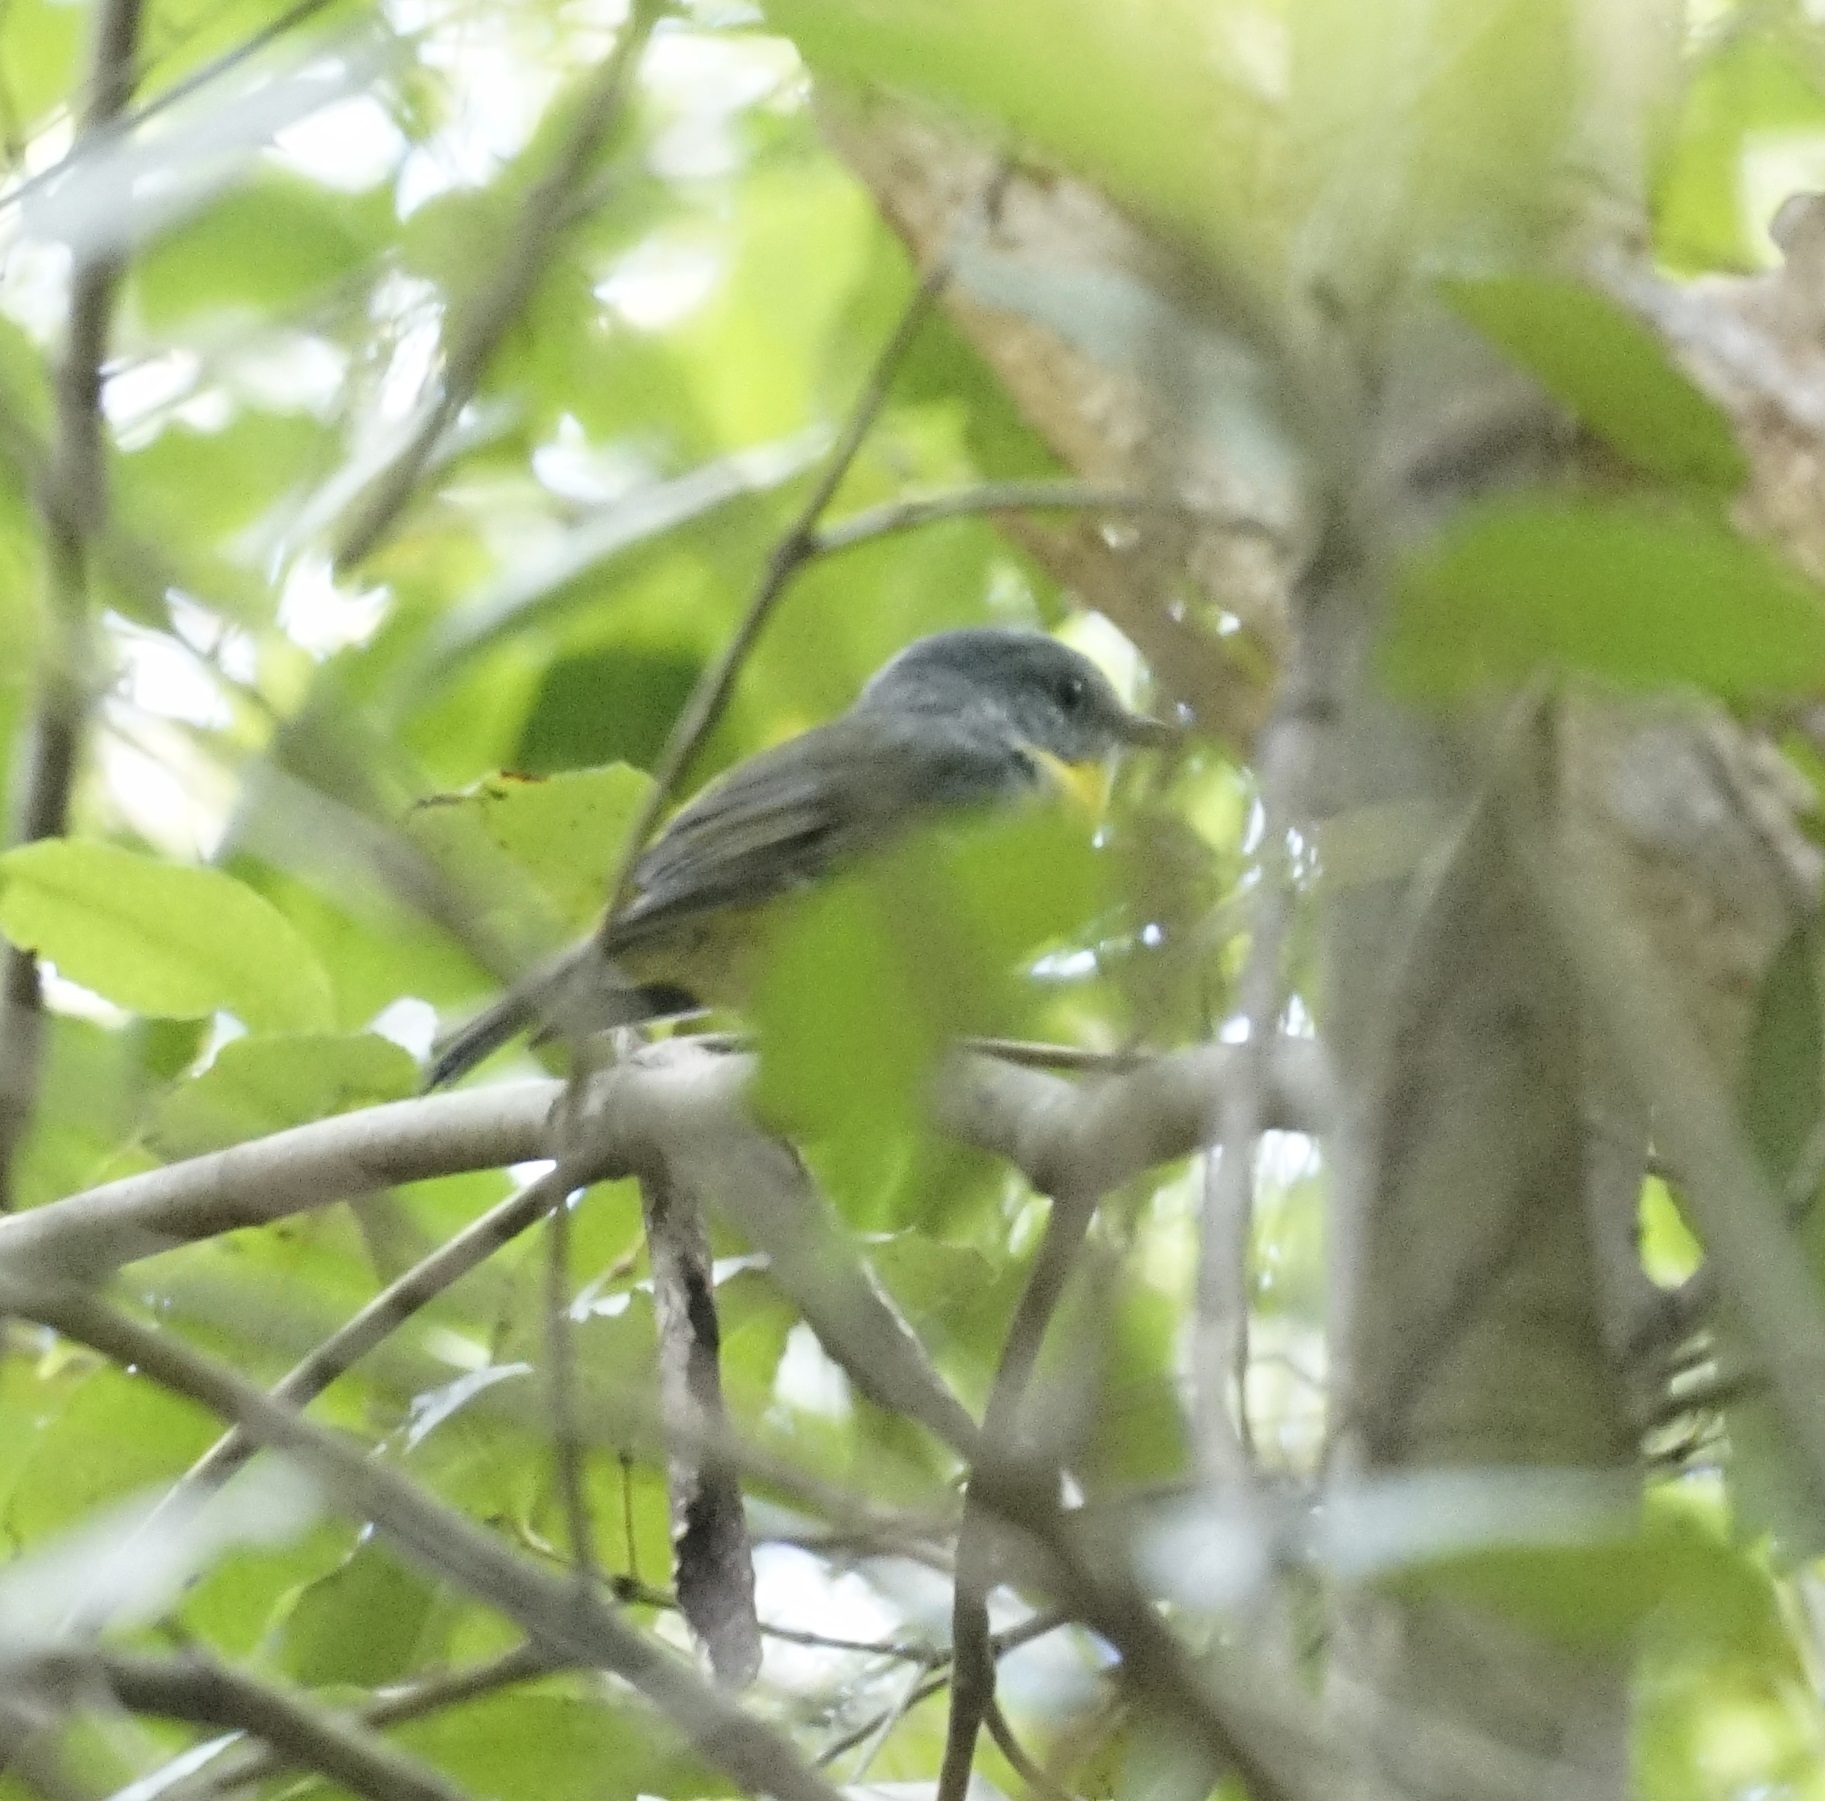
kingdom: Animalia
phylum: Chordata
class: Aves
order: Passeriformes
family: Petroicidae
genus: Eopsaltria
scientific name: Eopsaltria australis
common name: Eastern yellow robin
